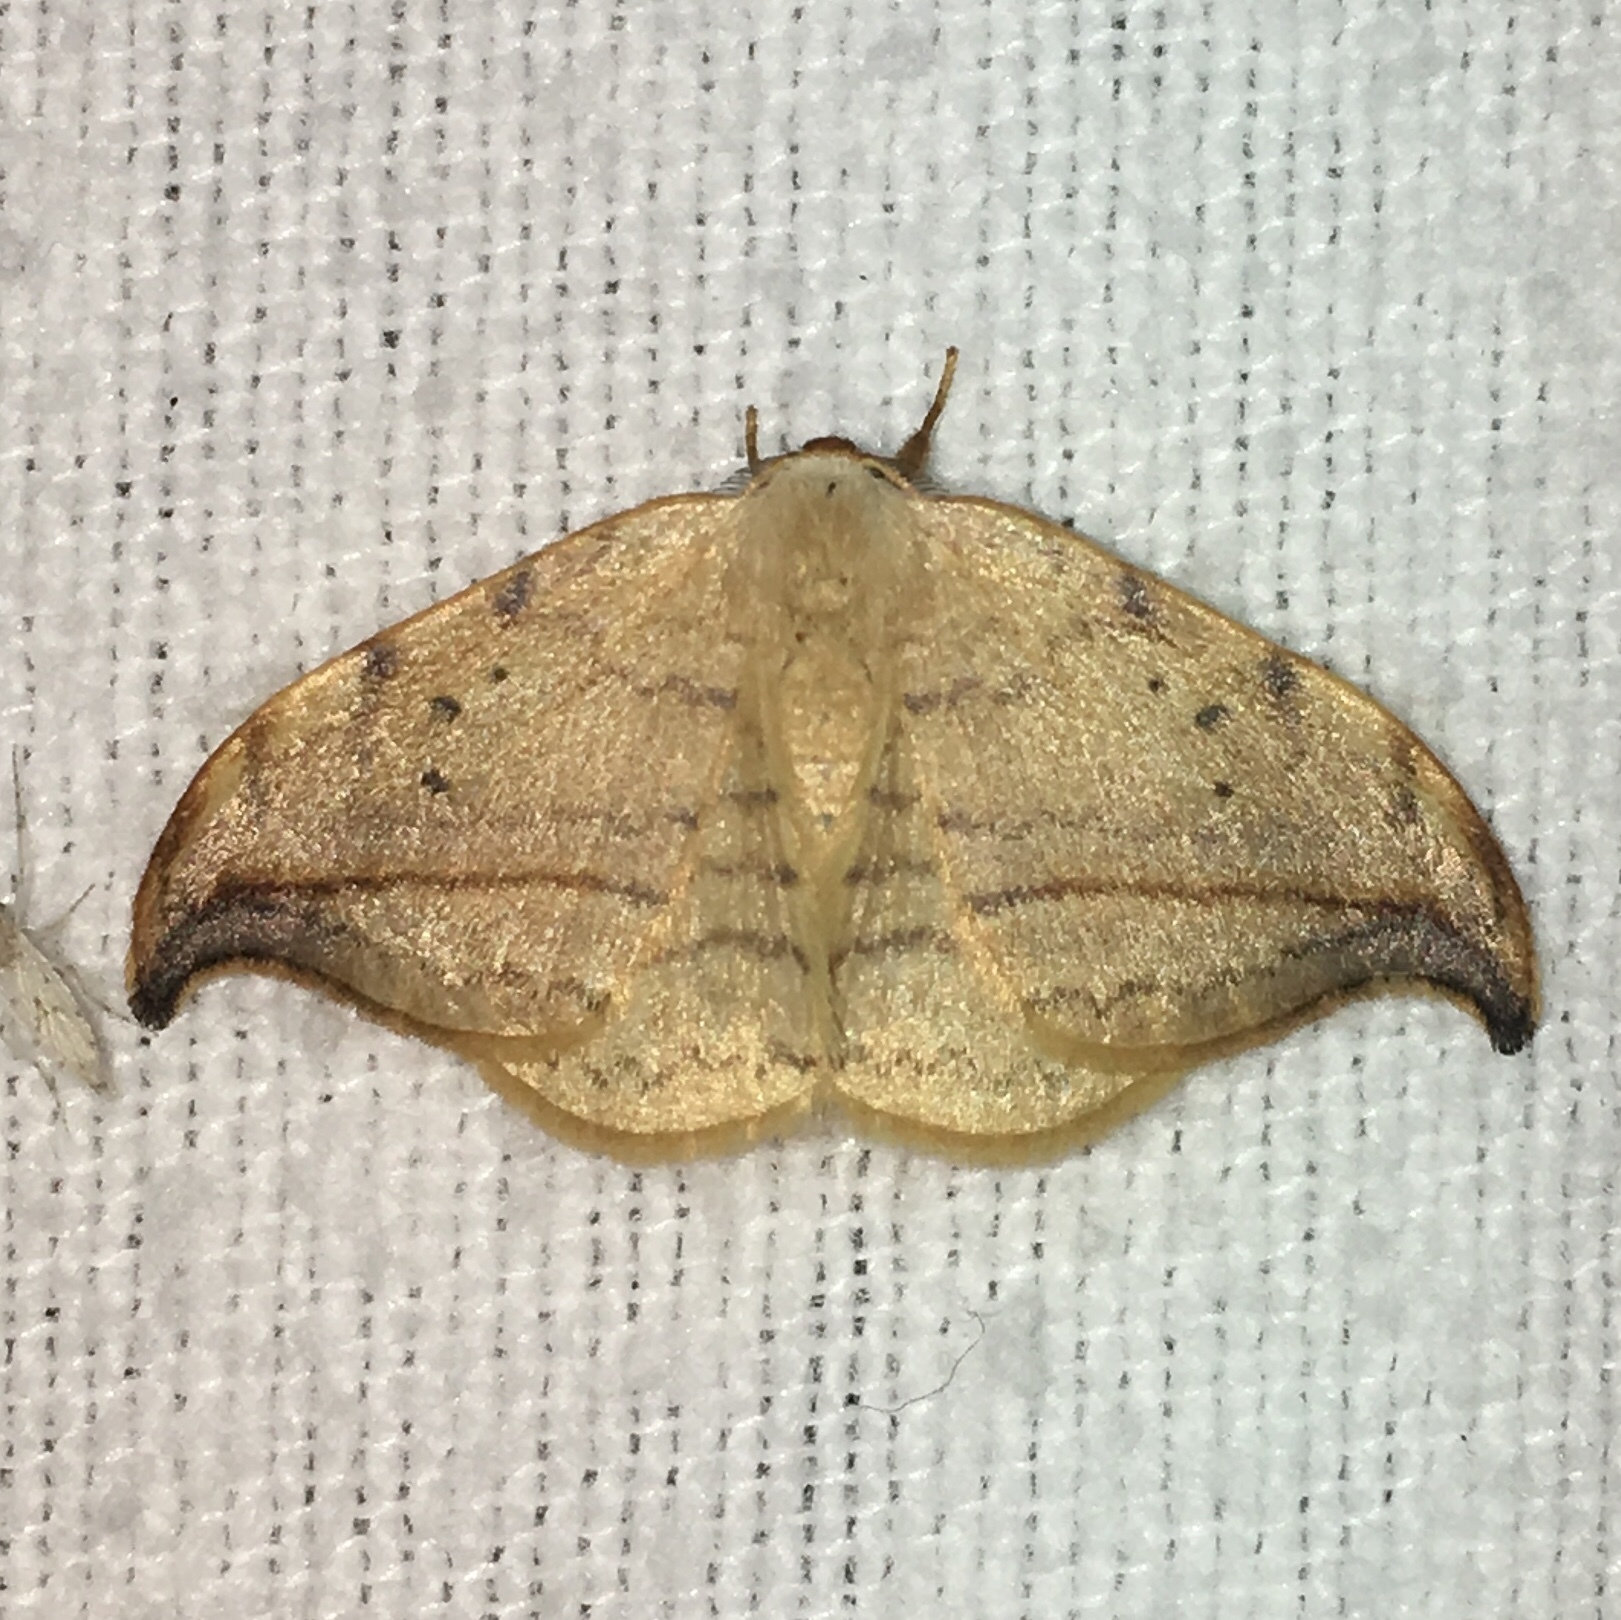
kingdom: Animalia
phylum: Arthropoda
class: Insecta
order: Lepidoptera
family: Drepanidae
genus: Drepana
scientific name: Drepana arcuata
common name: Arched hooktip moth
